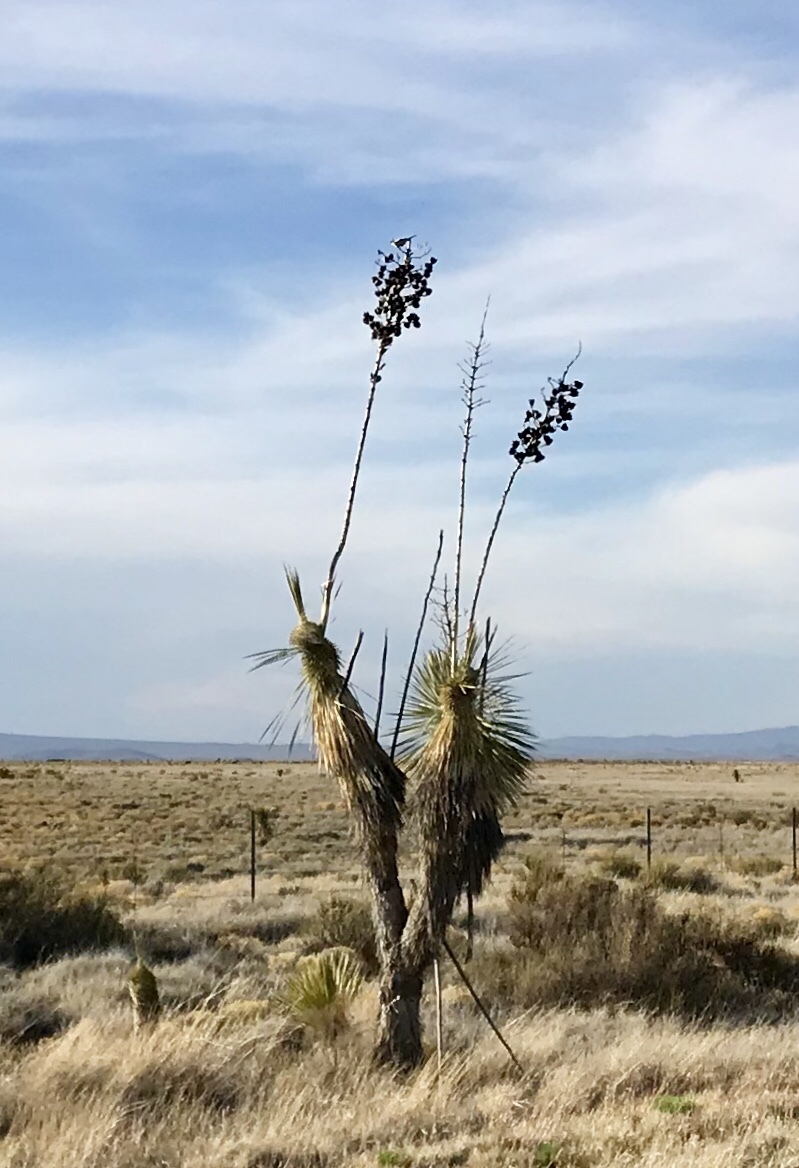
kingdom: Plantae
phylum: Tracheophyta
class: Liliopsida
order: Asparagales
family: Asparagaceae
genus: Yucca
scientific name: Yucca elata
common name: Palmella
